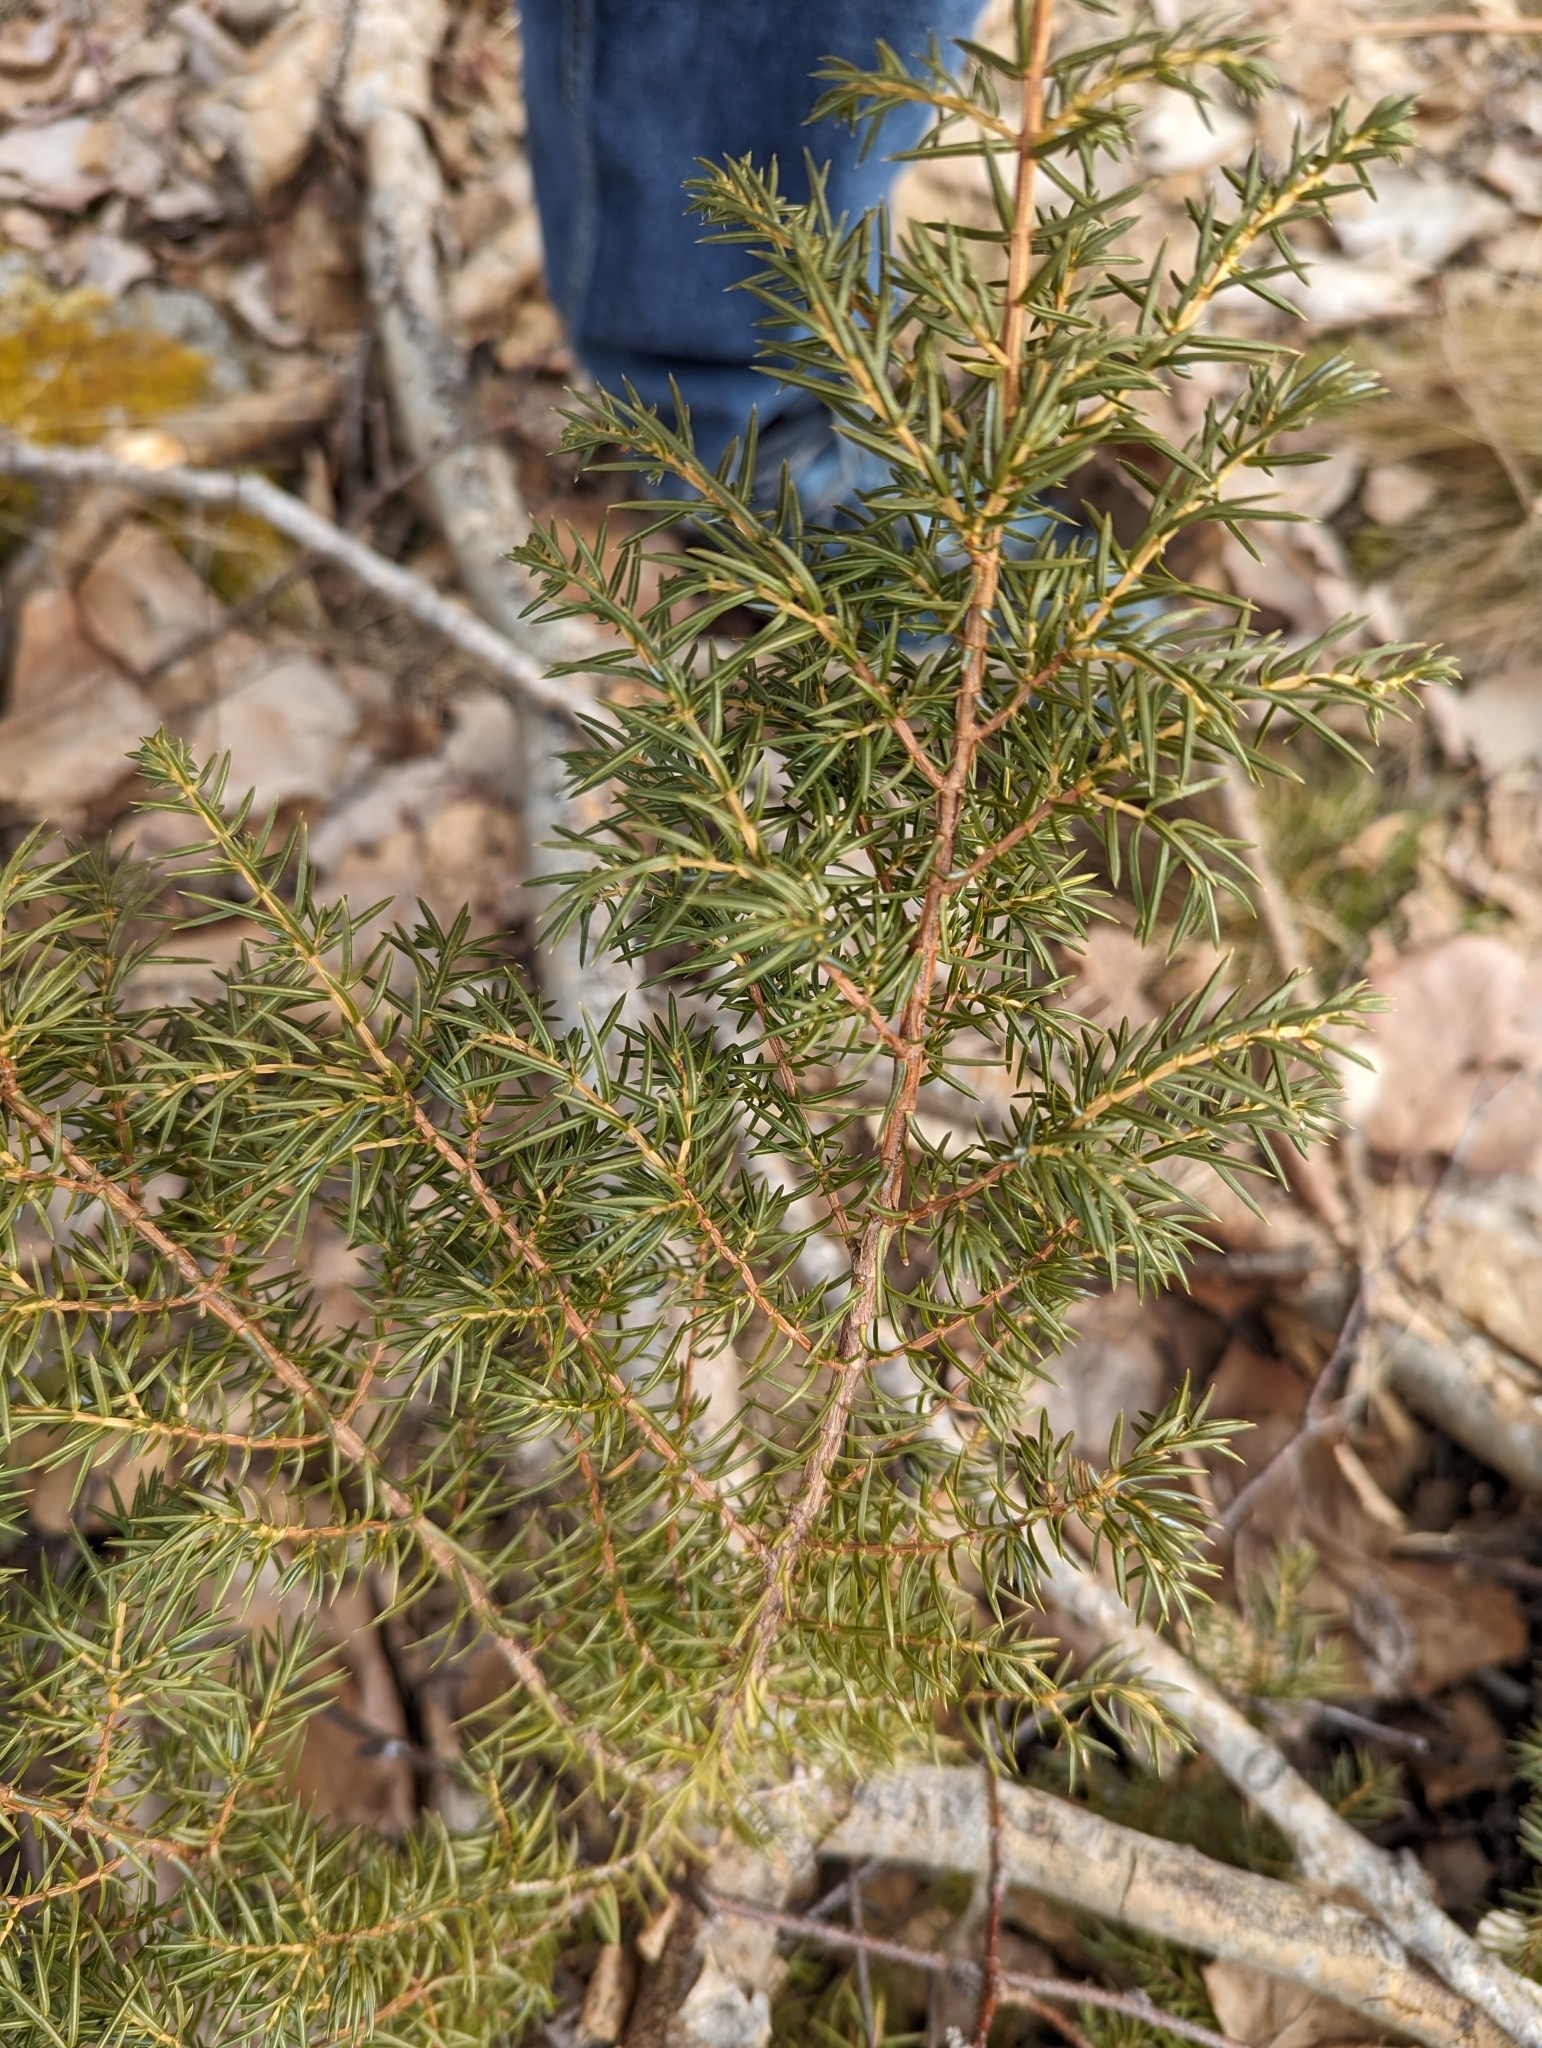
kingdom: Plantae
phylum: Tracheophyta
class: Pinopsida
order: Pinales
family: Cupressaceae
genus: Juniperus
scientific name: Juniperus communis
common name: Common juniper
